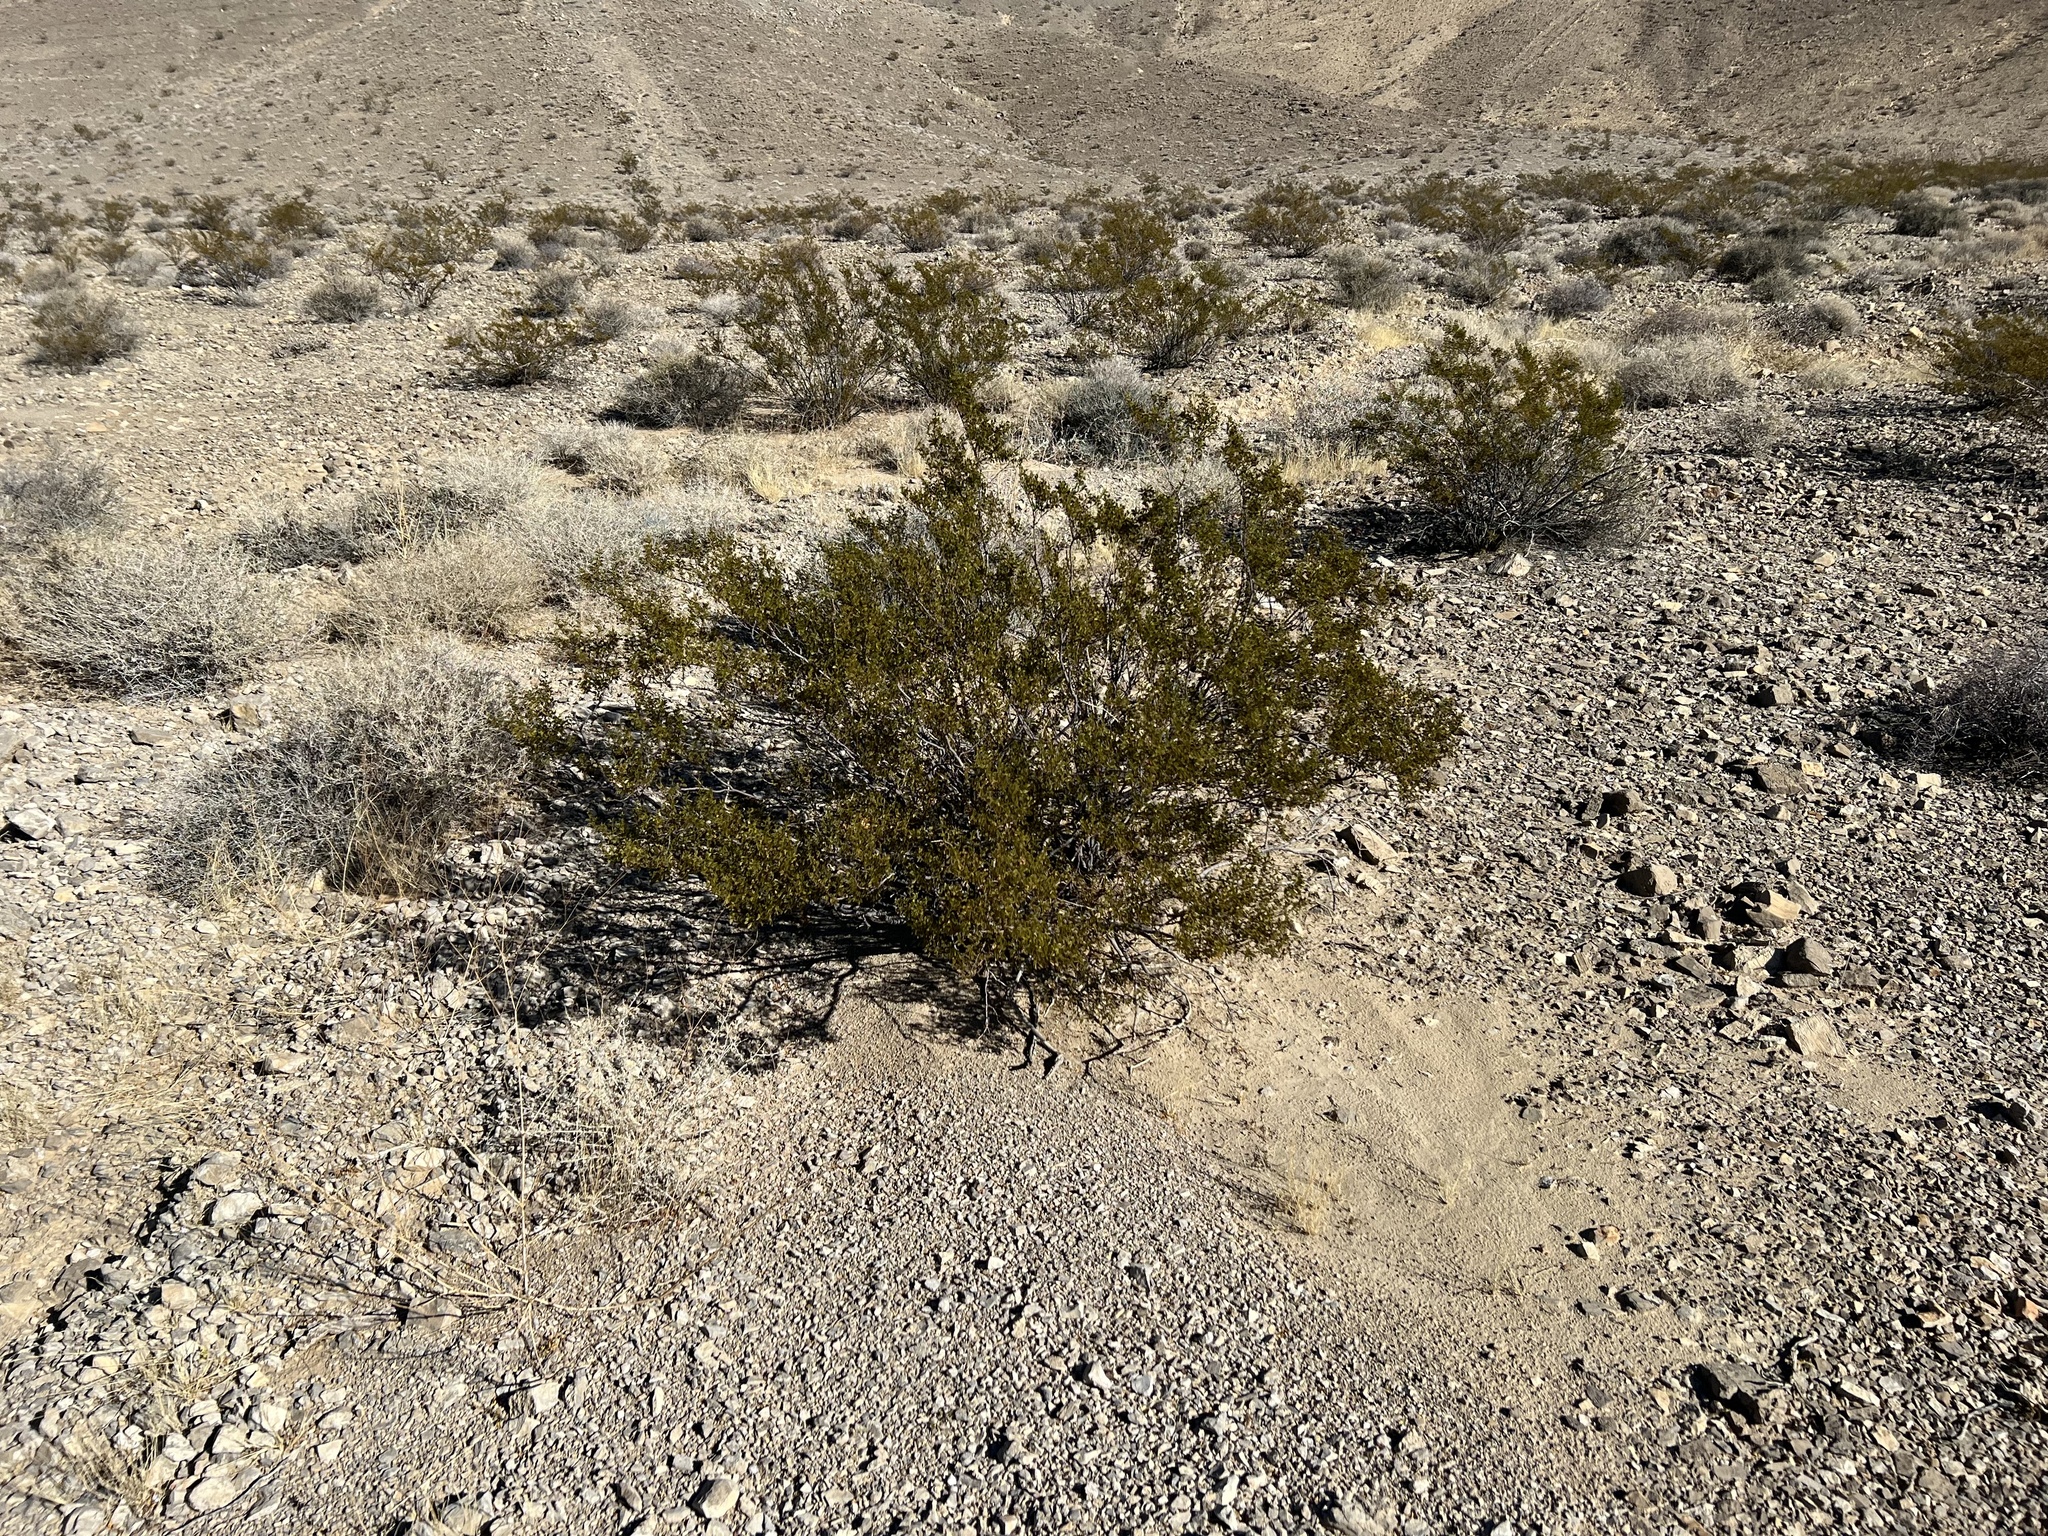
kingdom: Plantae
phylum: Tracheophyta
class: Magnoliopsida
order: Zygophyllales
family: Zygophyllaceae
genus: Larrea
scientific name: Larrea tridentata
